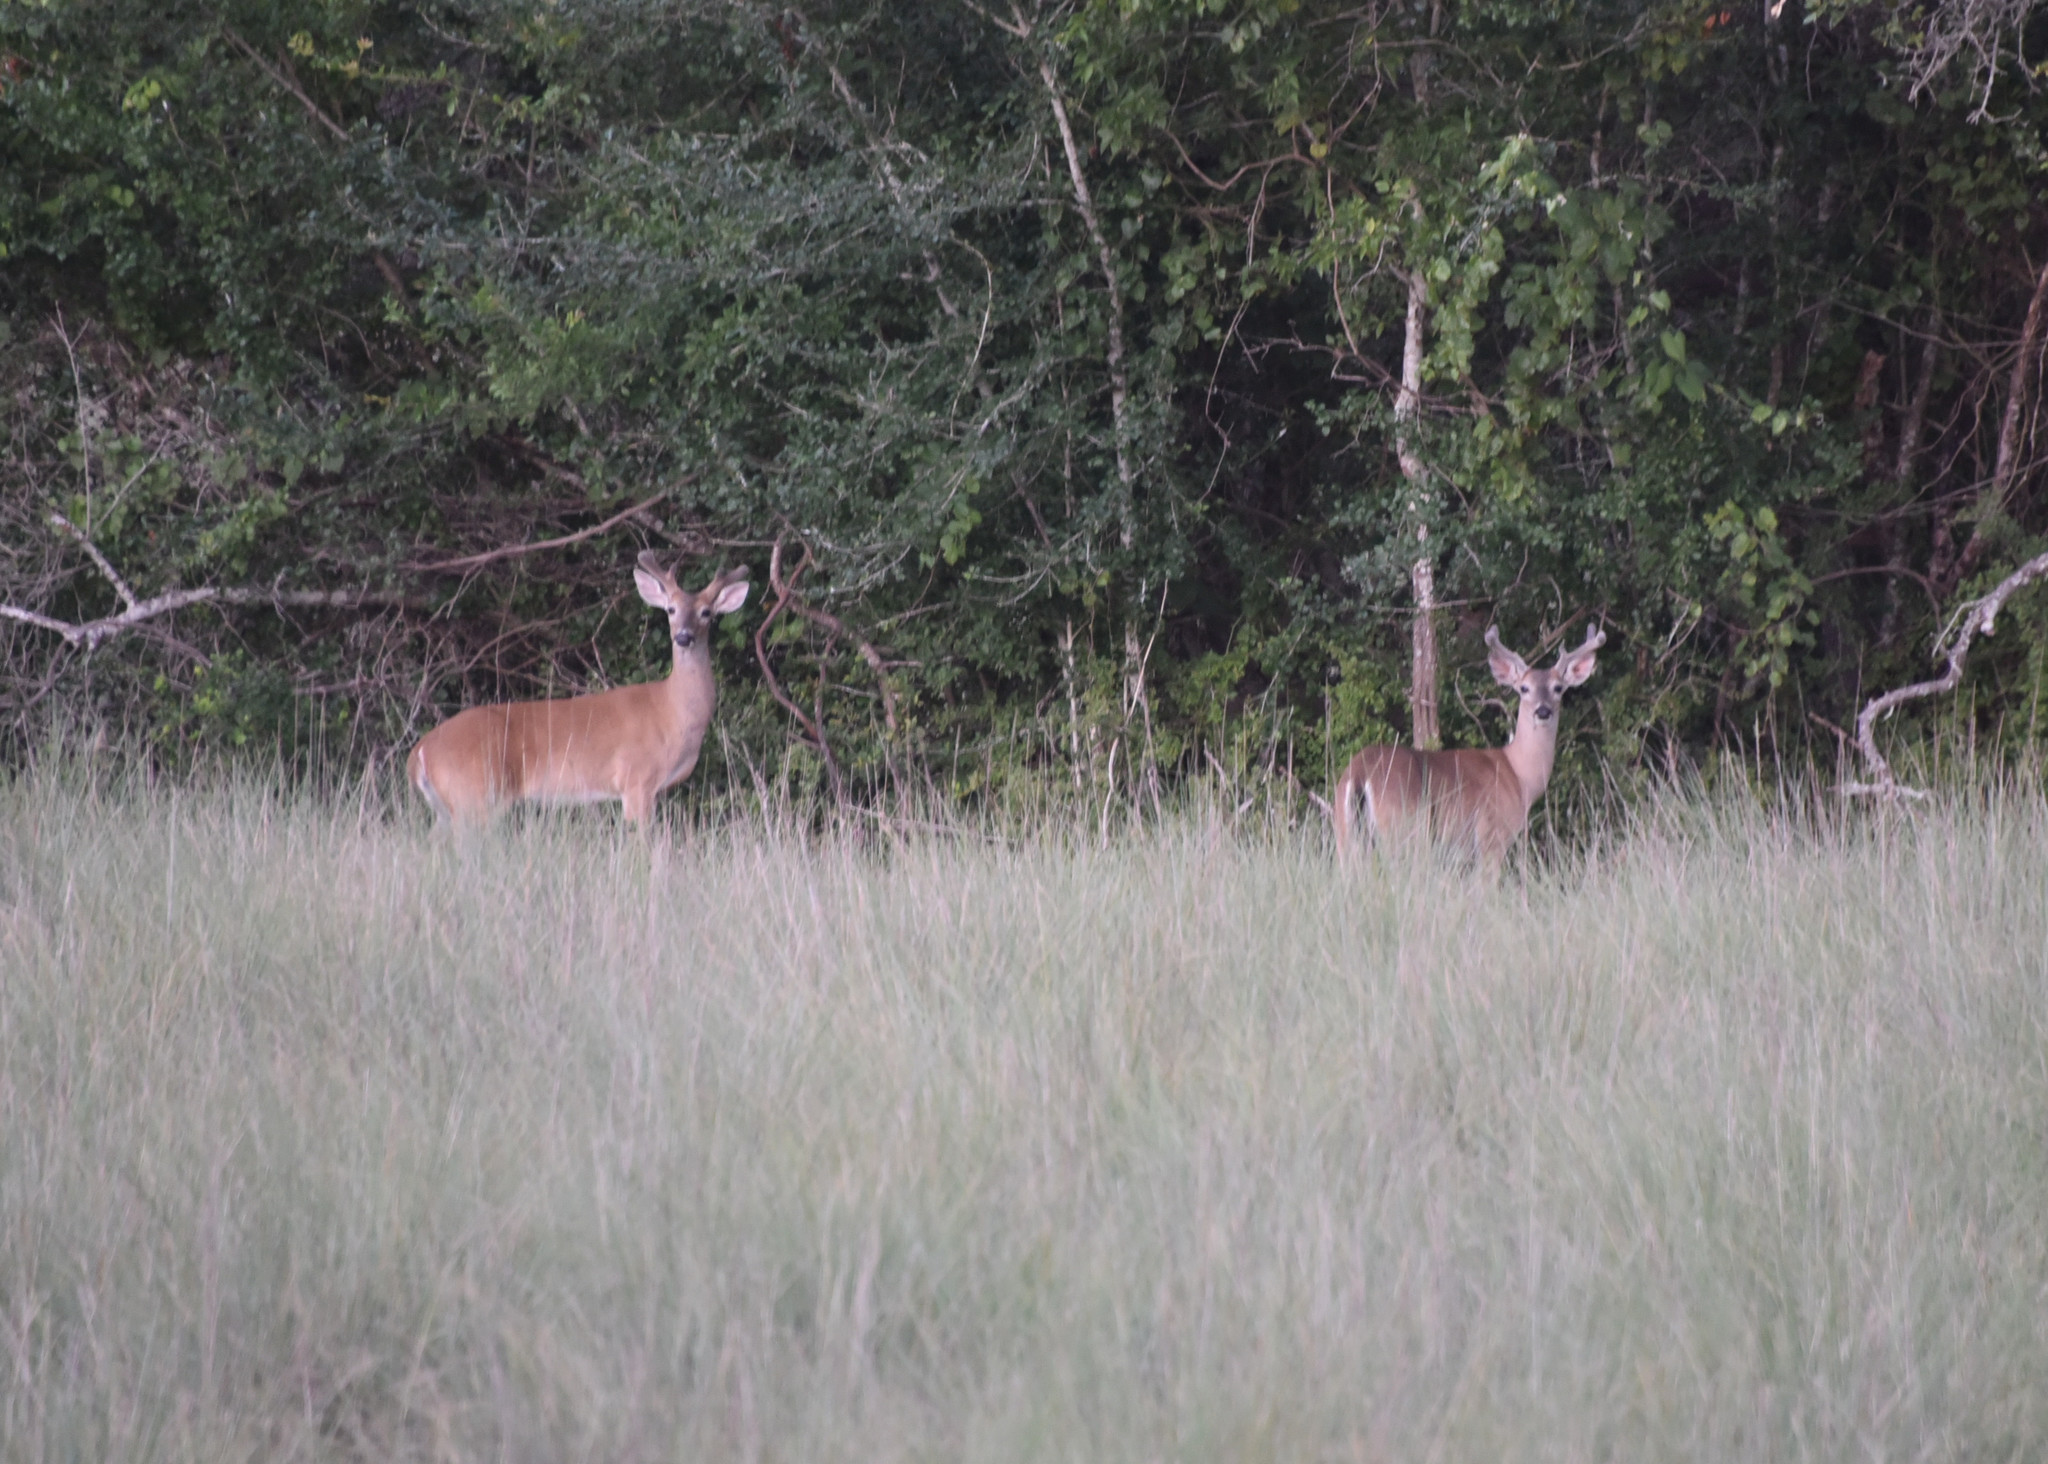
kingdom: Animalia
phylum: Chordata
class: Mammalia
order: Artiodactyla
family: Cervidae
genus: Odocoileus
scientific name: Odocoileus virginianus
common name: White-tailed deer
